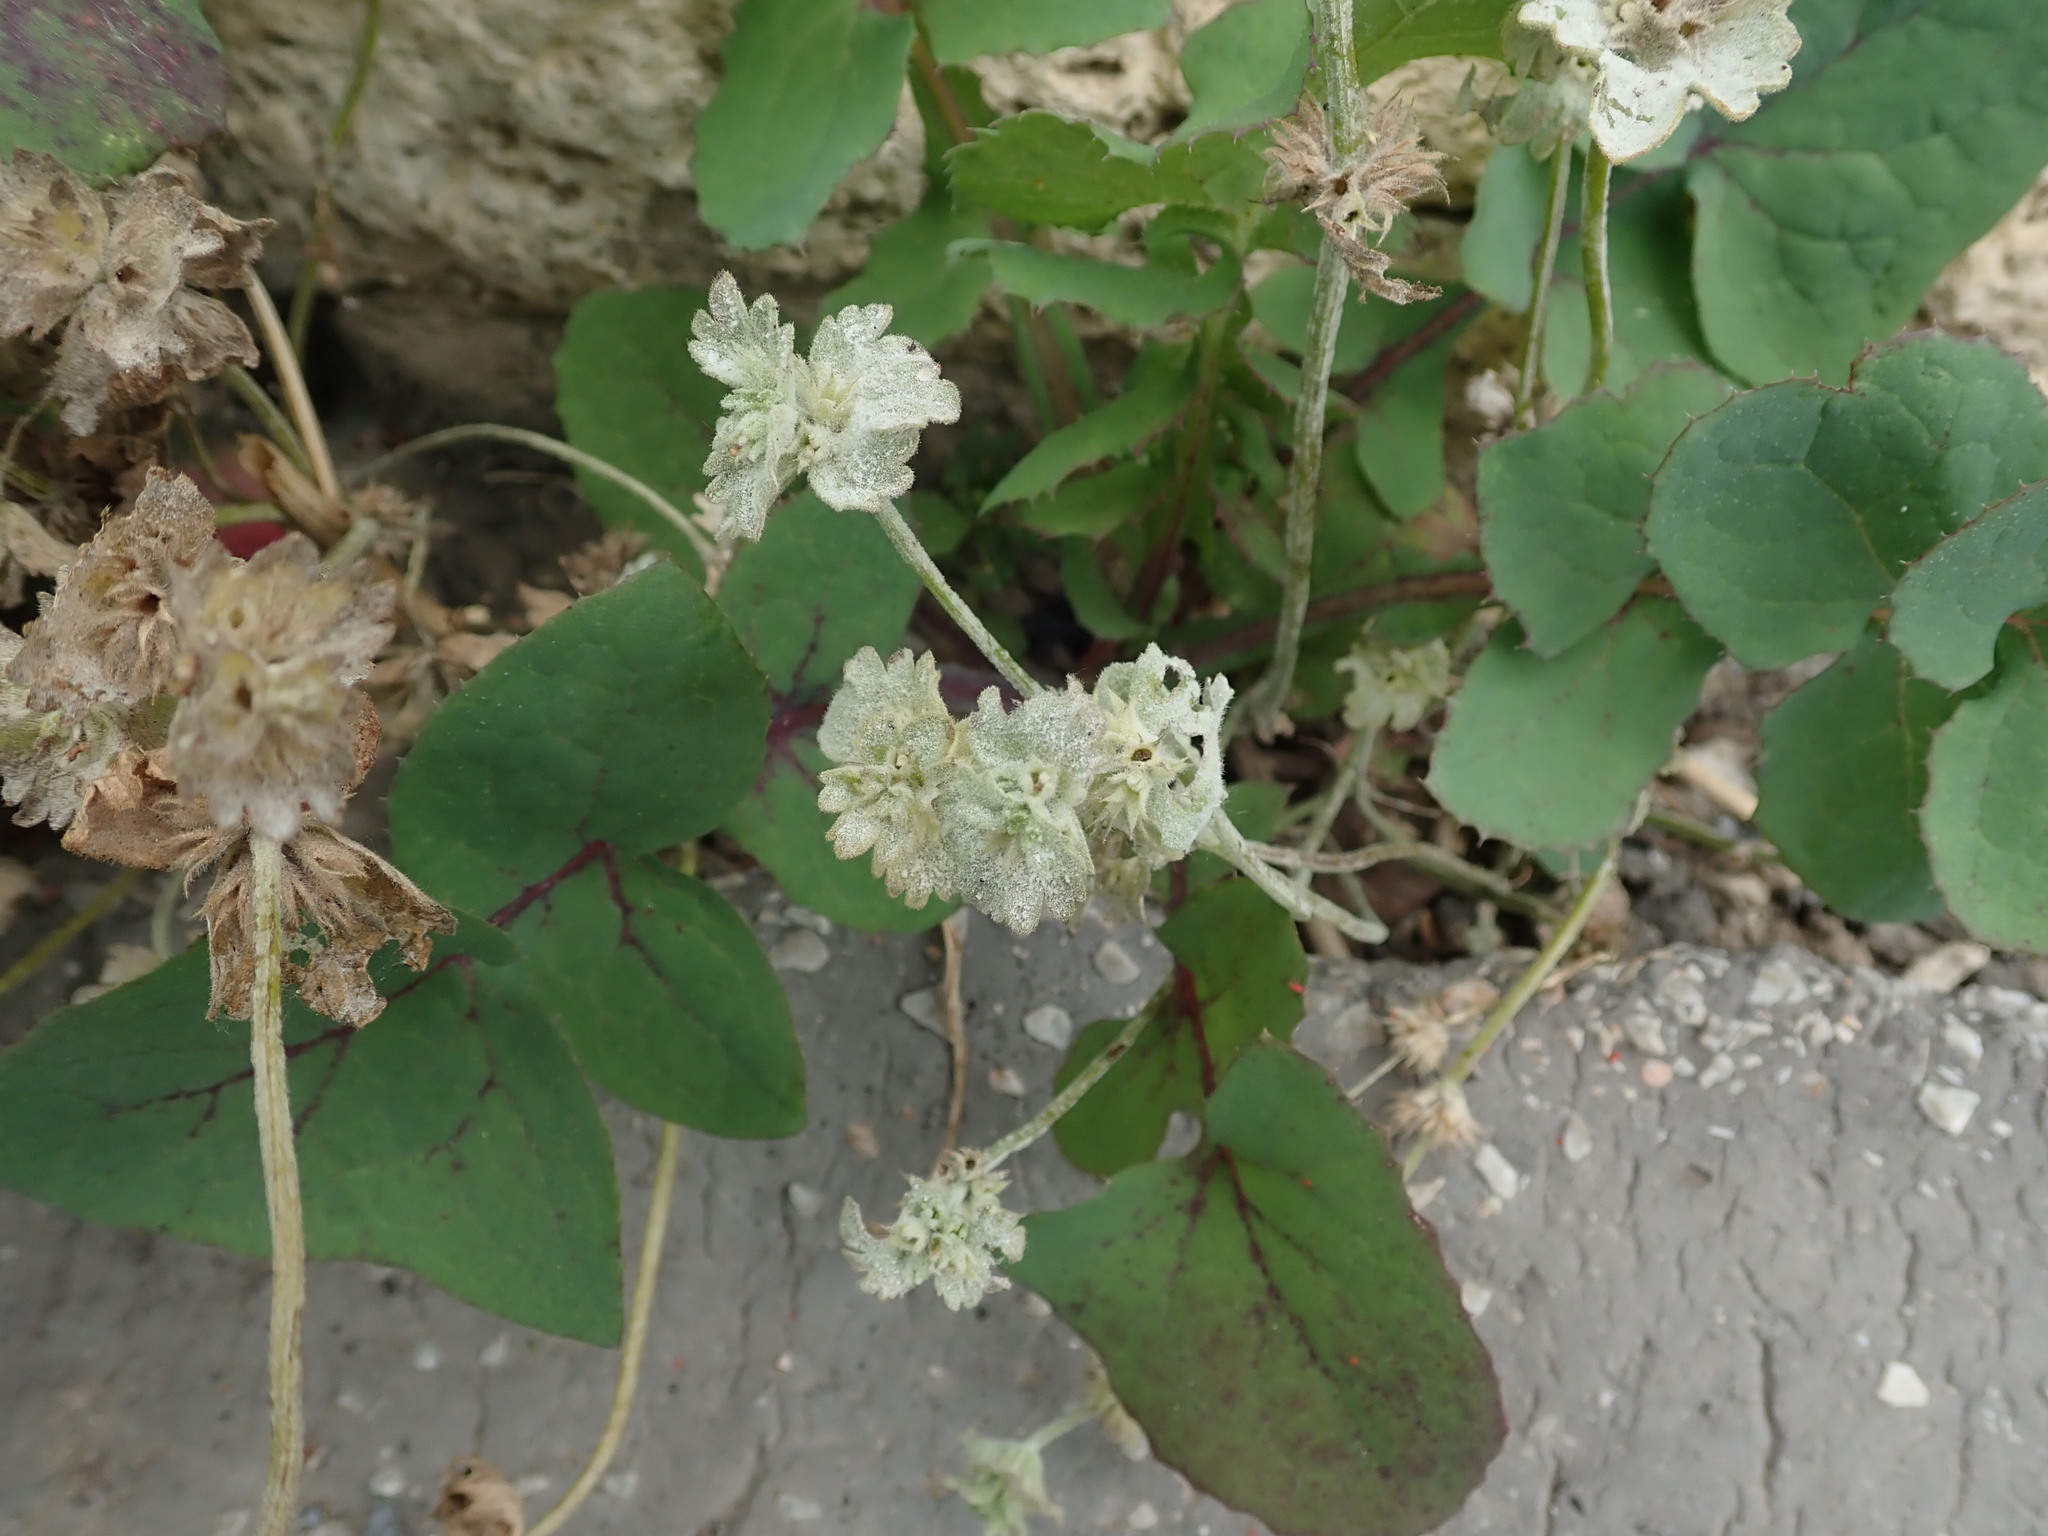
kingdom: Plantae
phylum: Tracheophyta
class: Magnoliopsida
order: Lamiales
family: Lamiaceae
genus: Lamium
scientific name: Lamium amplexicaule
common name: Henbit dead-nettle
